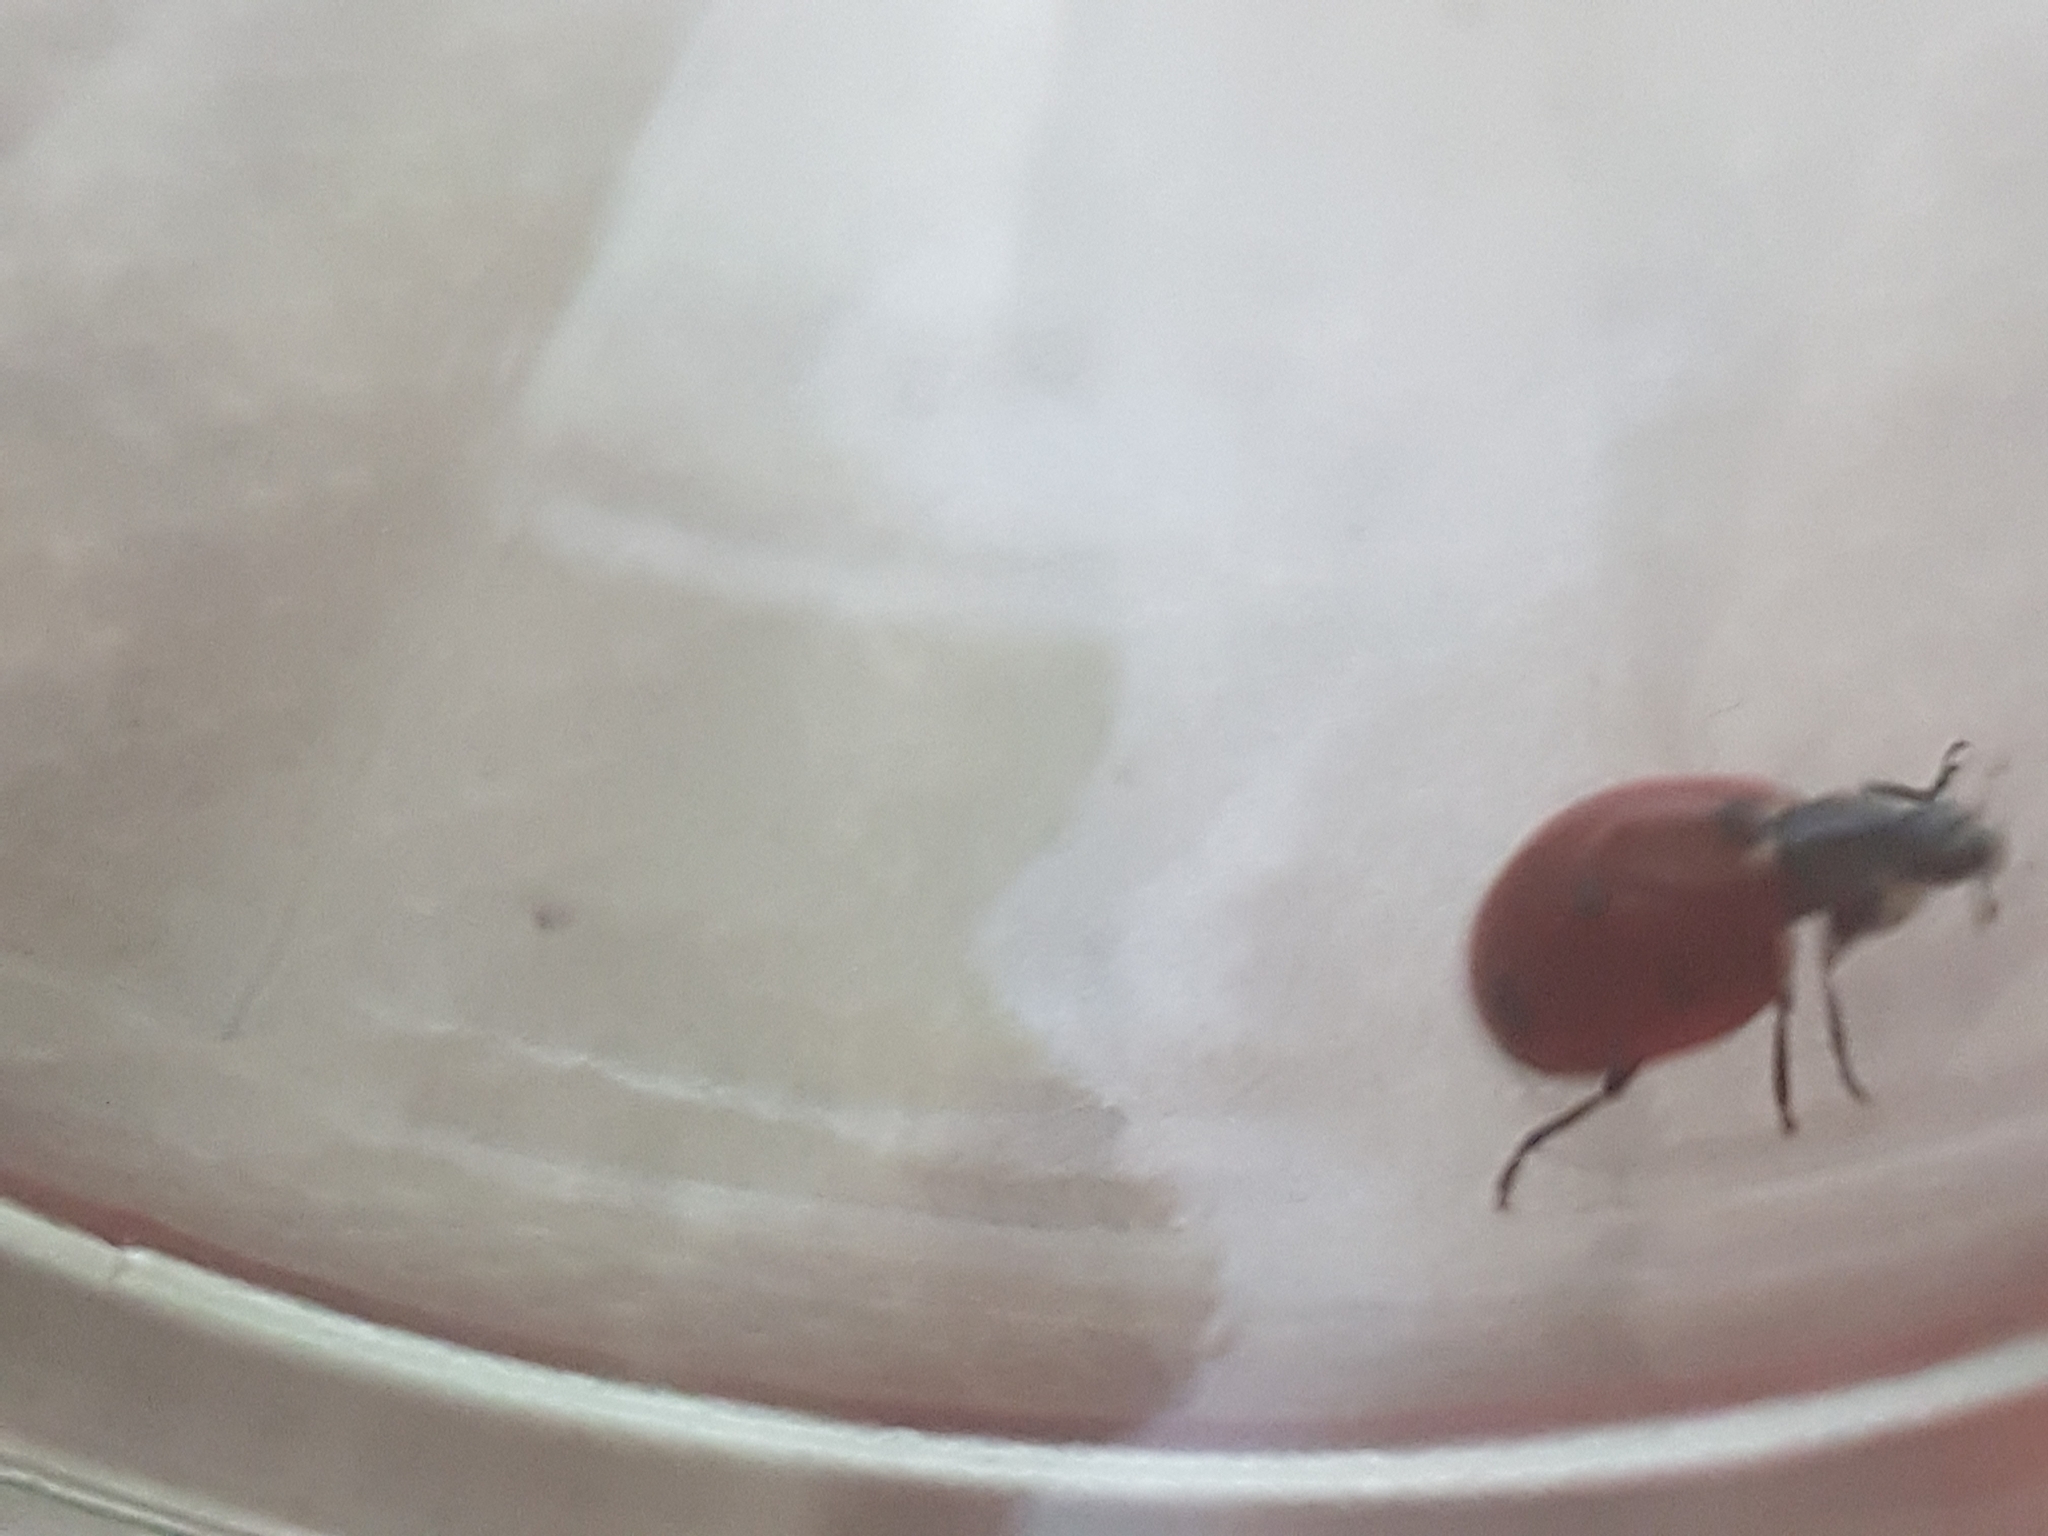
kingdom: Animalia
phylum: Arthropoda
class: Insecta
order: Coleoptera
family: Coccinellidae
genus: Coccinella
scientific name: Coccinella septempunctata
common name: Sevenspotted lady beetle
